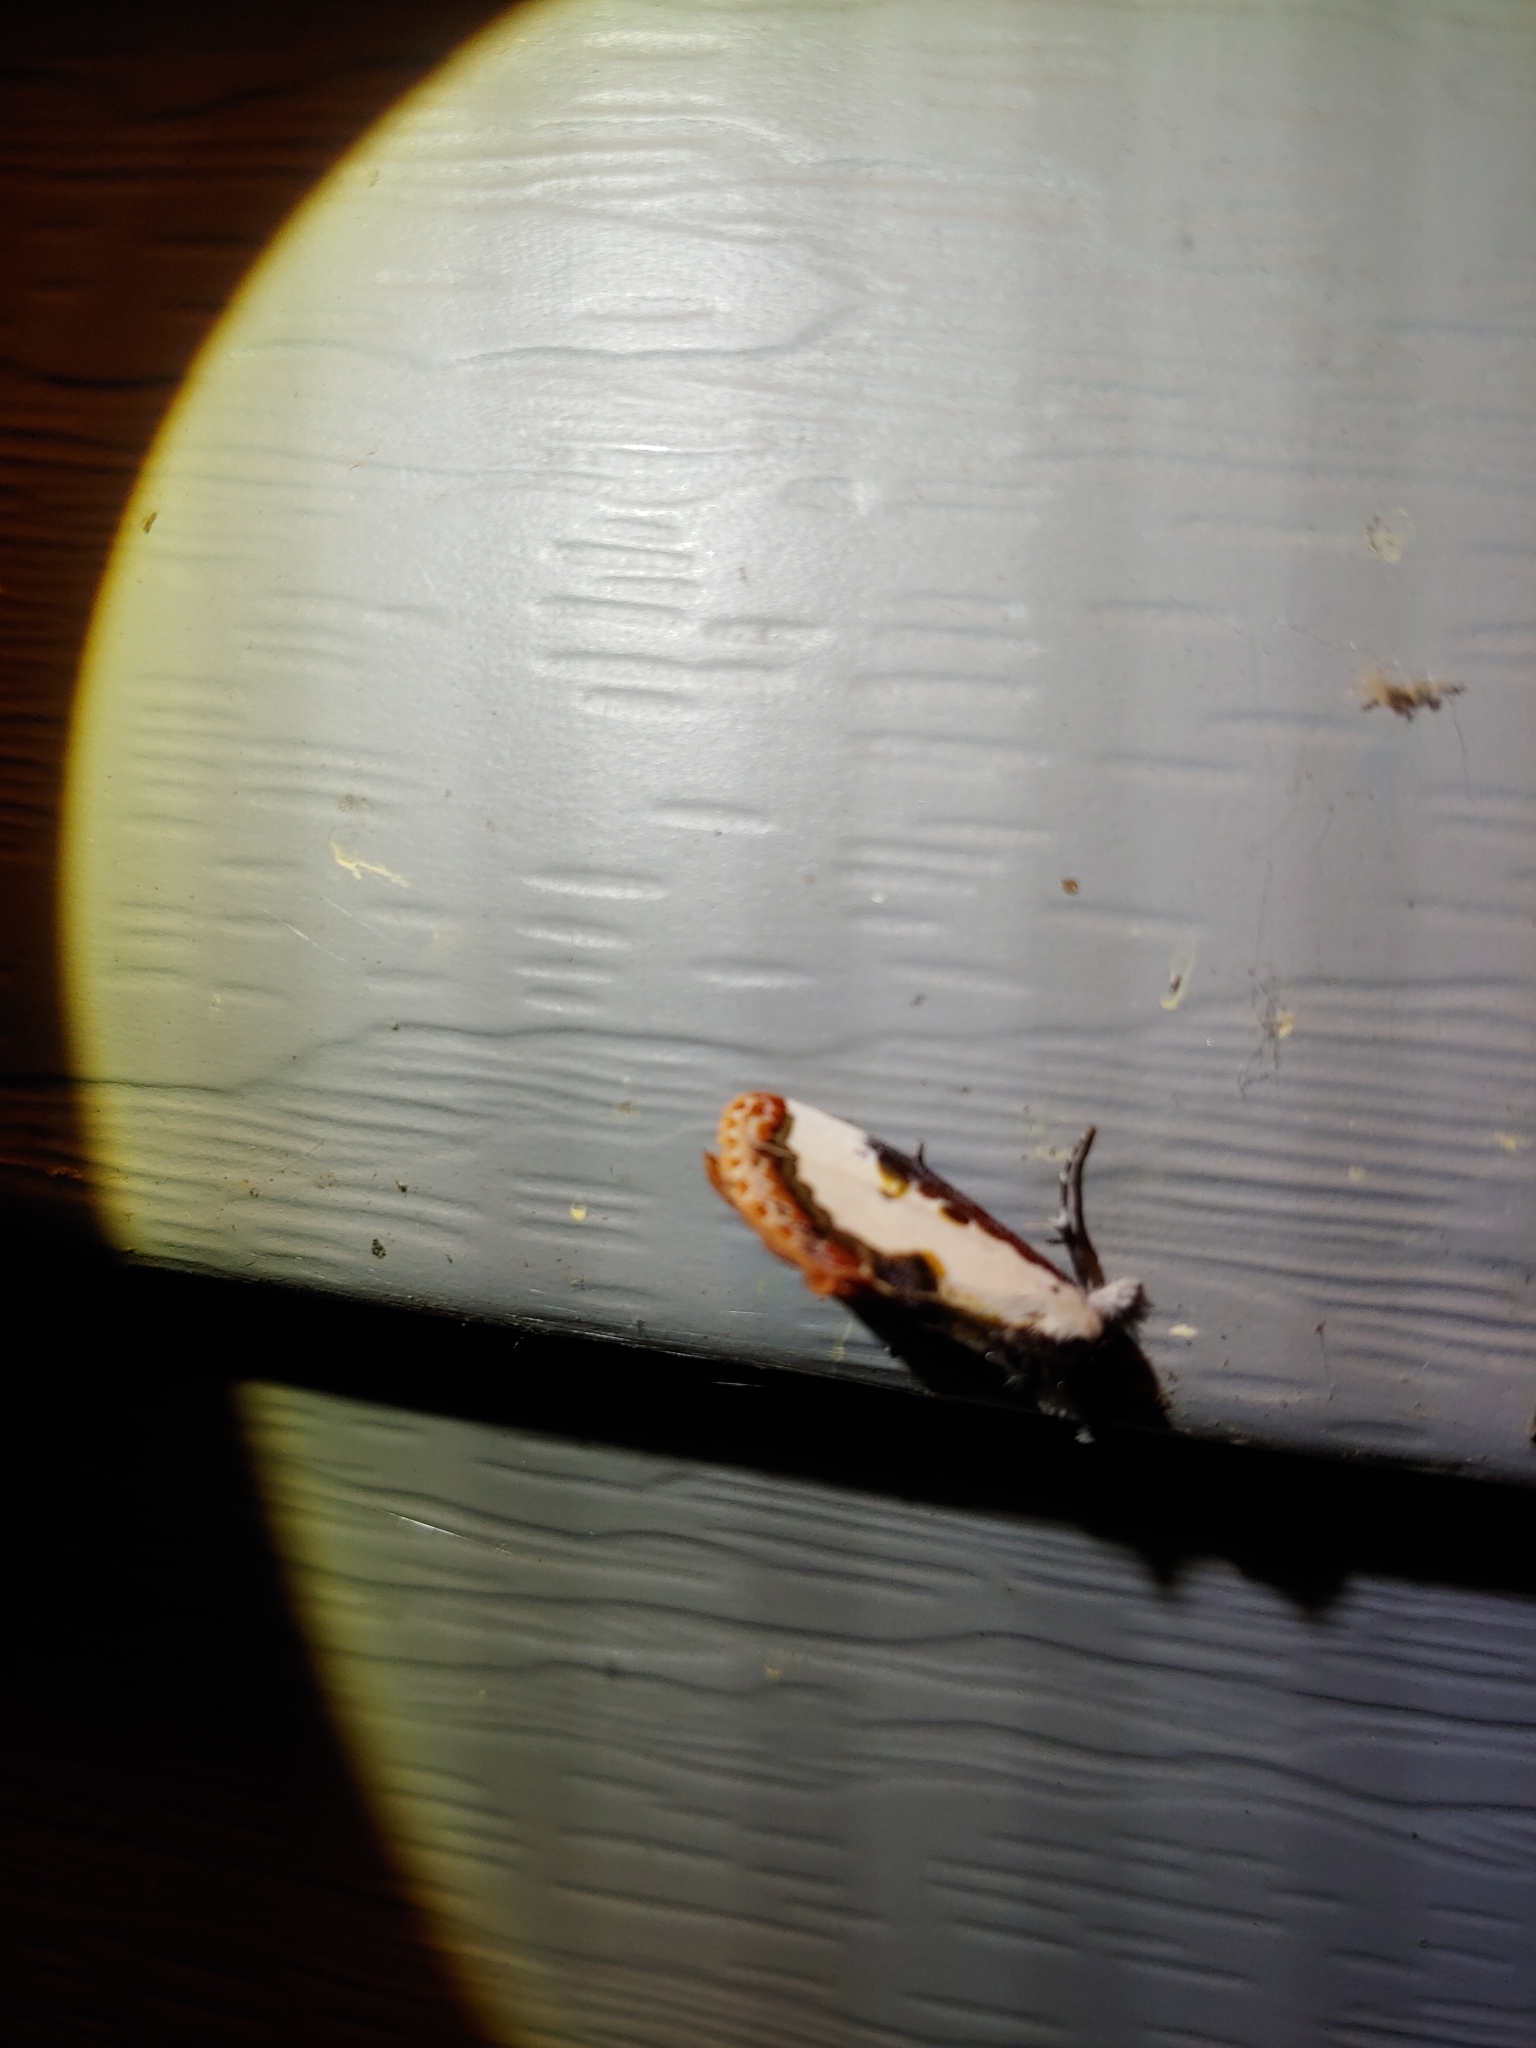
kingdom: Animalia
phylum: Arthropoda
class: Insecta
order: Lepidoptera
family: Noctuidae
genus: Eudryas
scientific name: Eudryas unio
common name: Pearly wood-nymph
